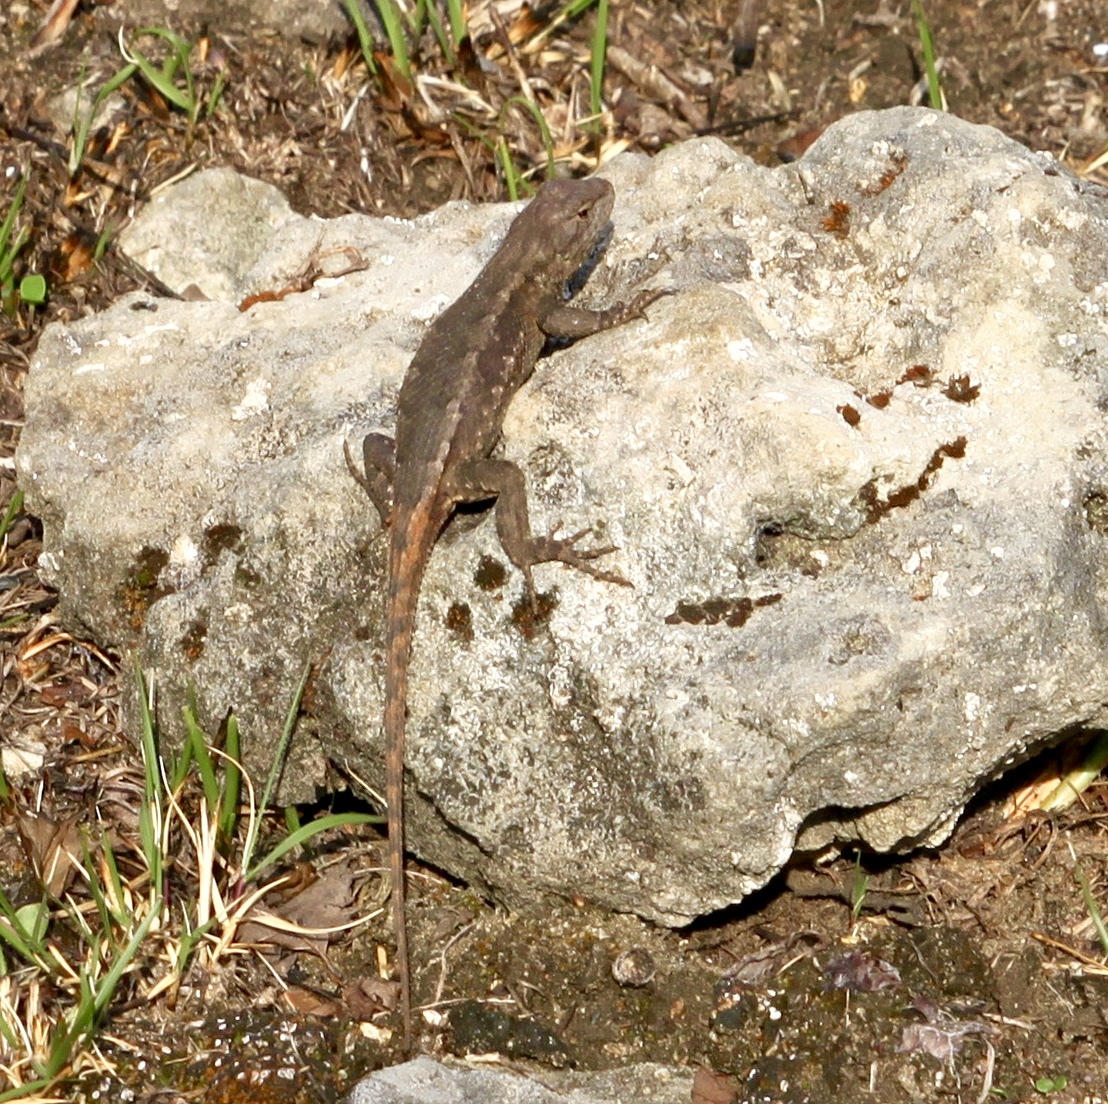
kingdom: Animalia
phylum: Chordata
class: Squamata
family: Phrynosomatidae
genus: Sceloporus
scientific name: Sceloporus consobrinus
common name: Southern prairie lizard
